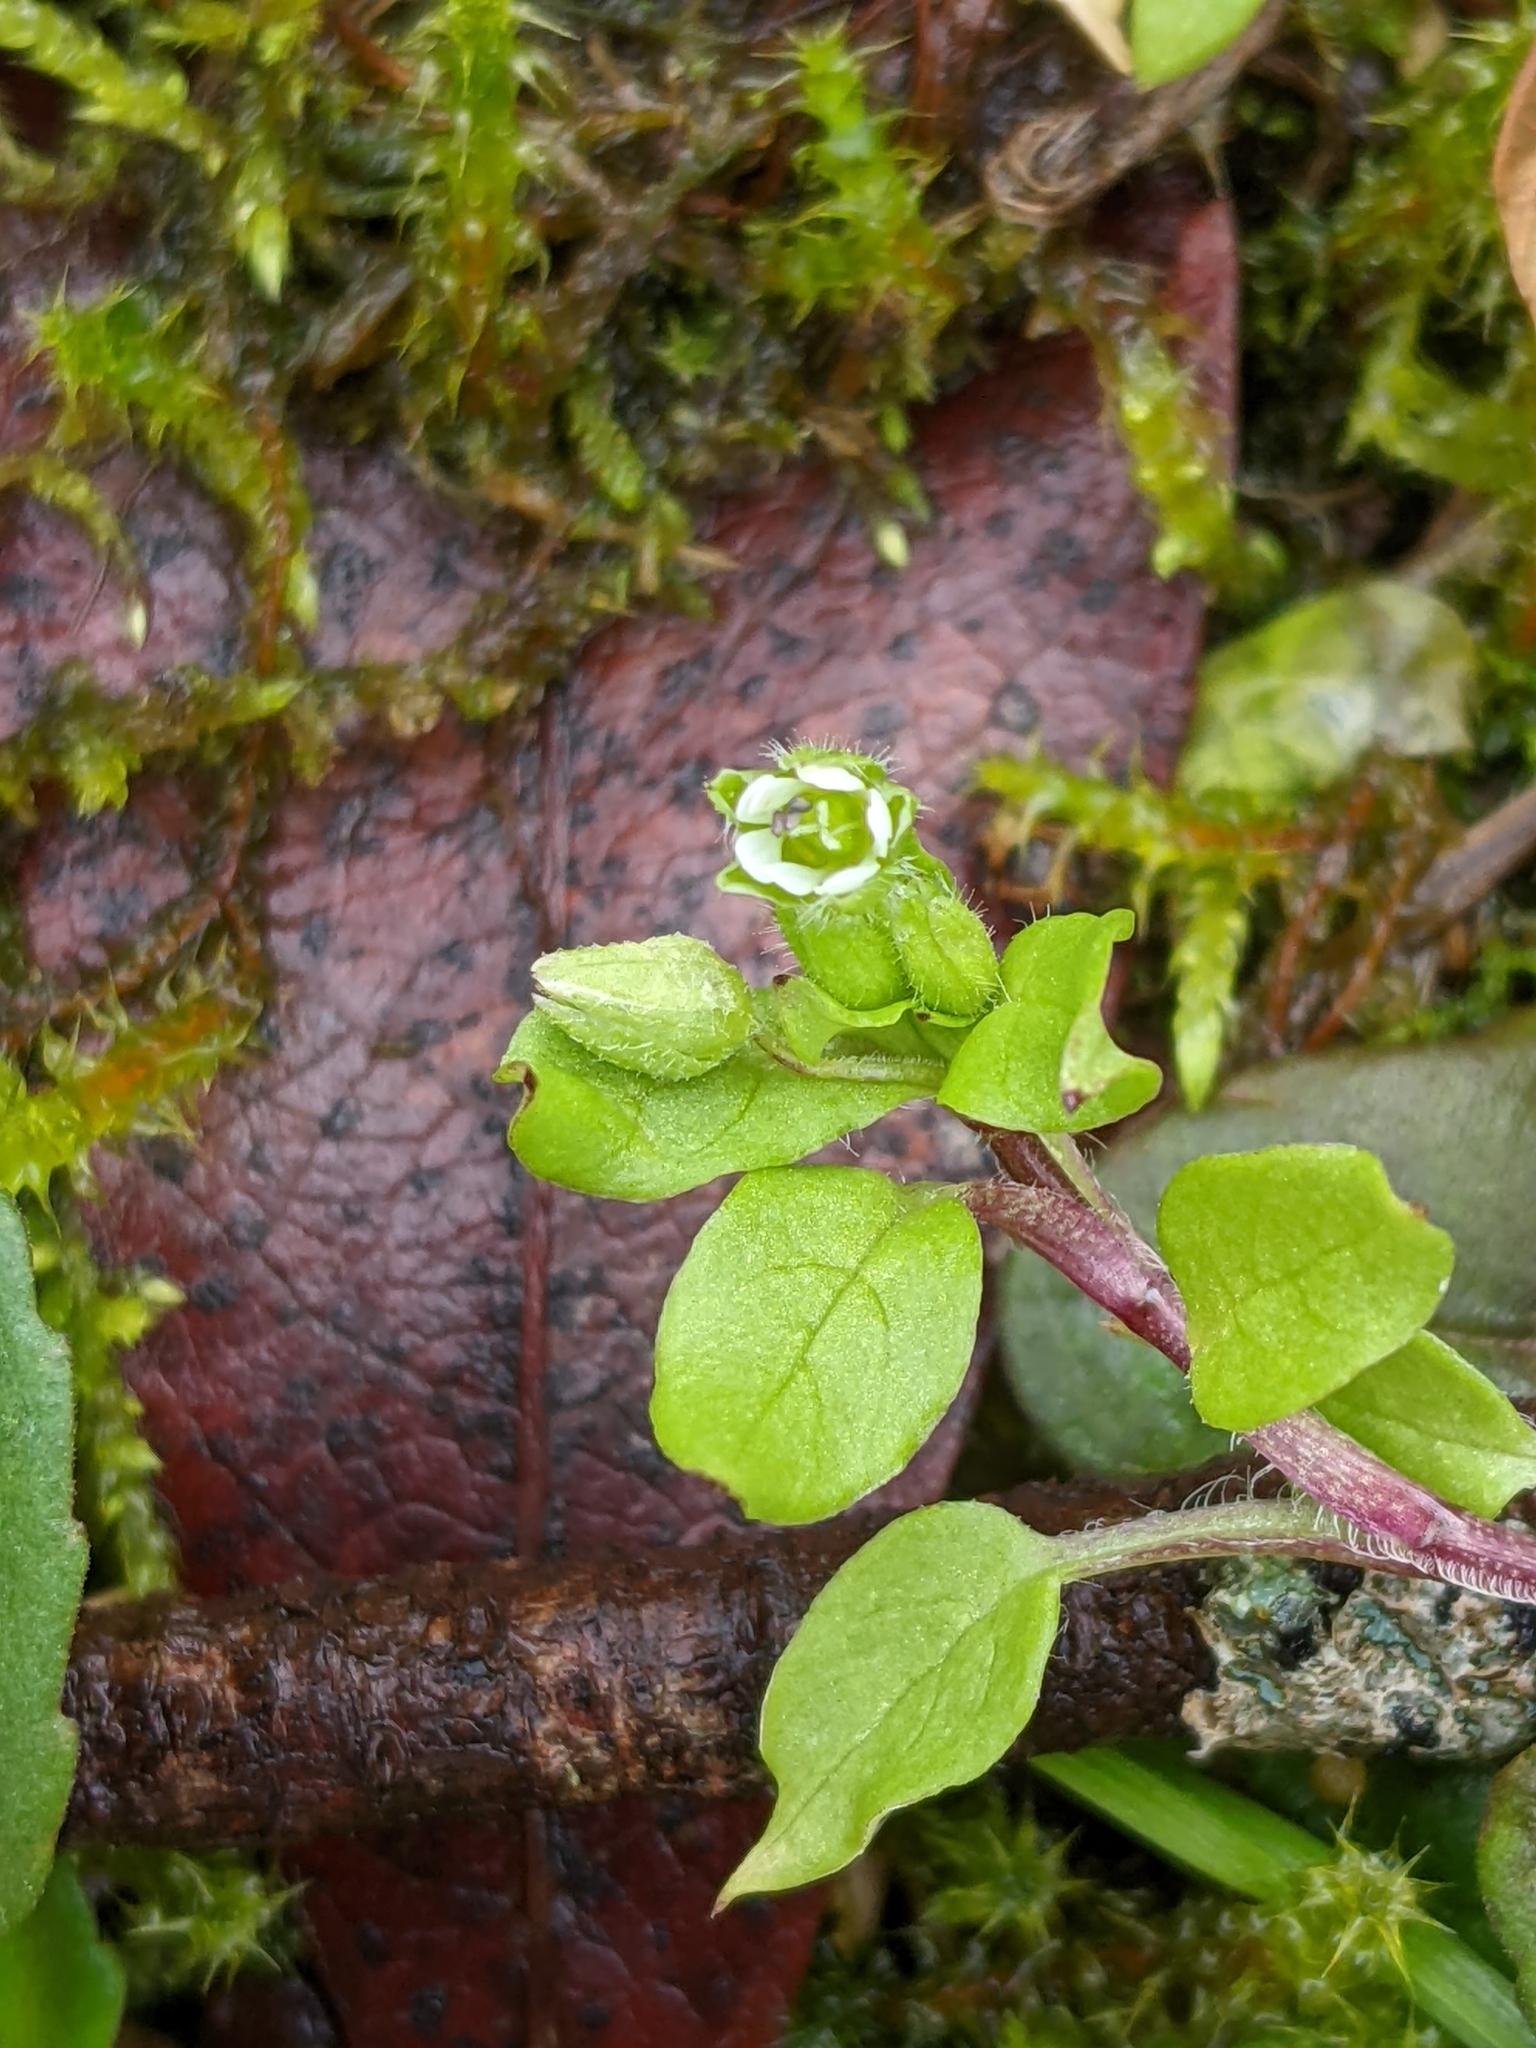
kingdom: Plantae
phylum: Tracheophyta
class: Magnoliopsida
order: Caryophyllales
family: Caryophyllaceae
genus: Stellaria
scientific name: Stellaria media
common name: Common chickweed
